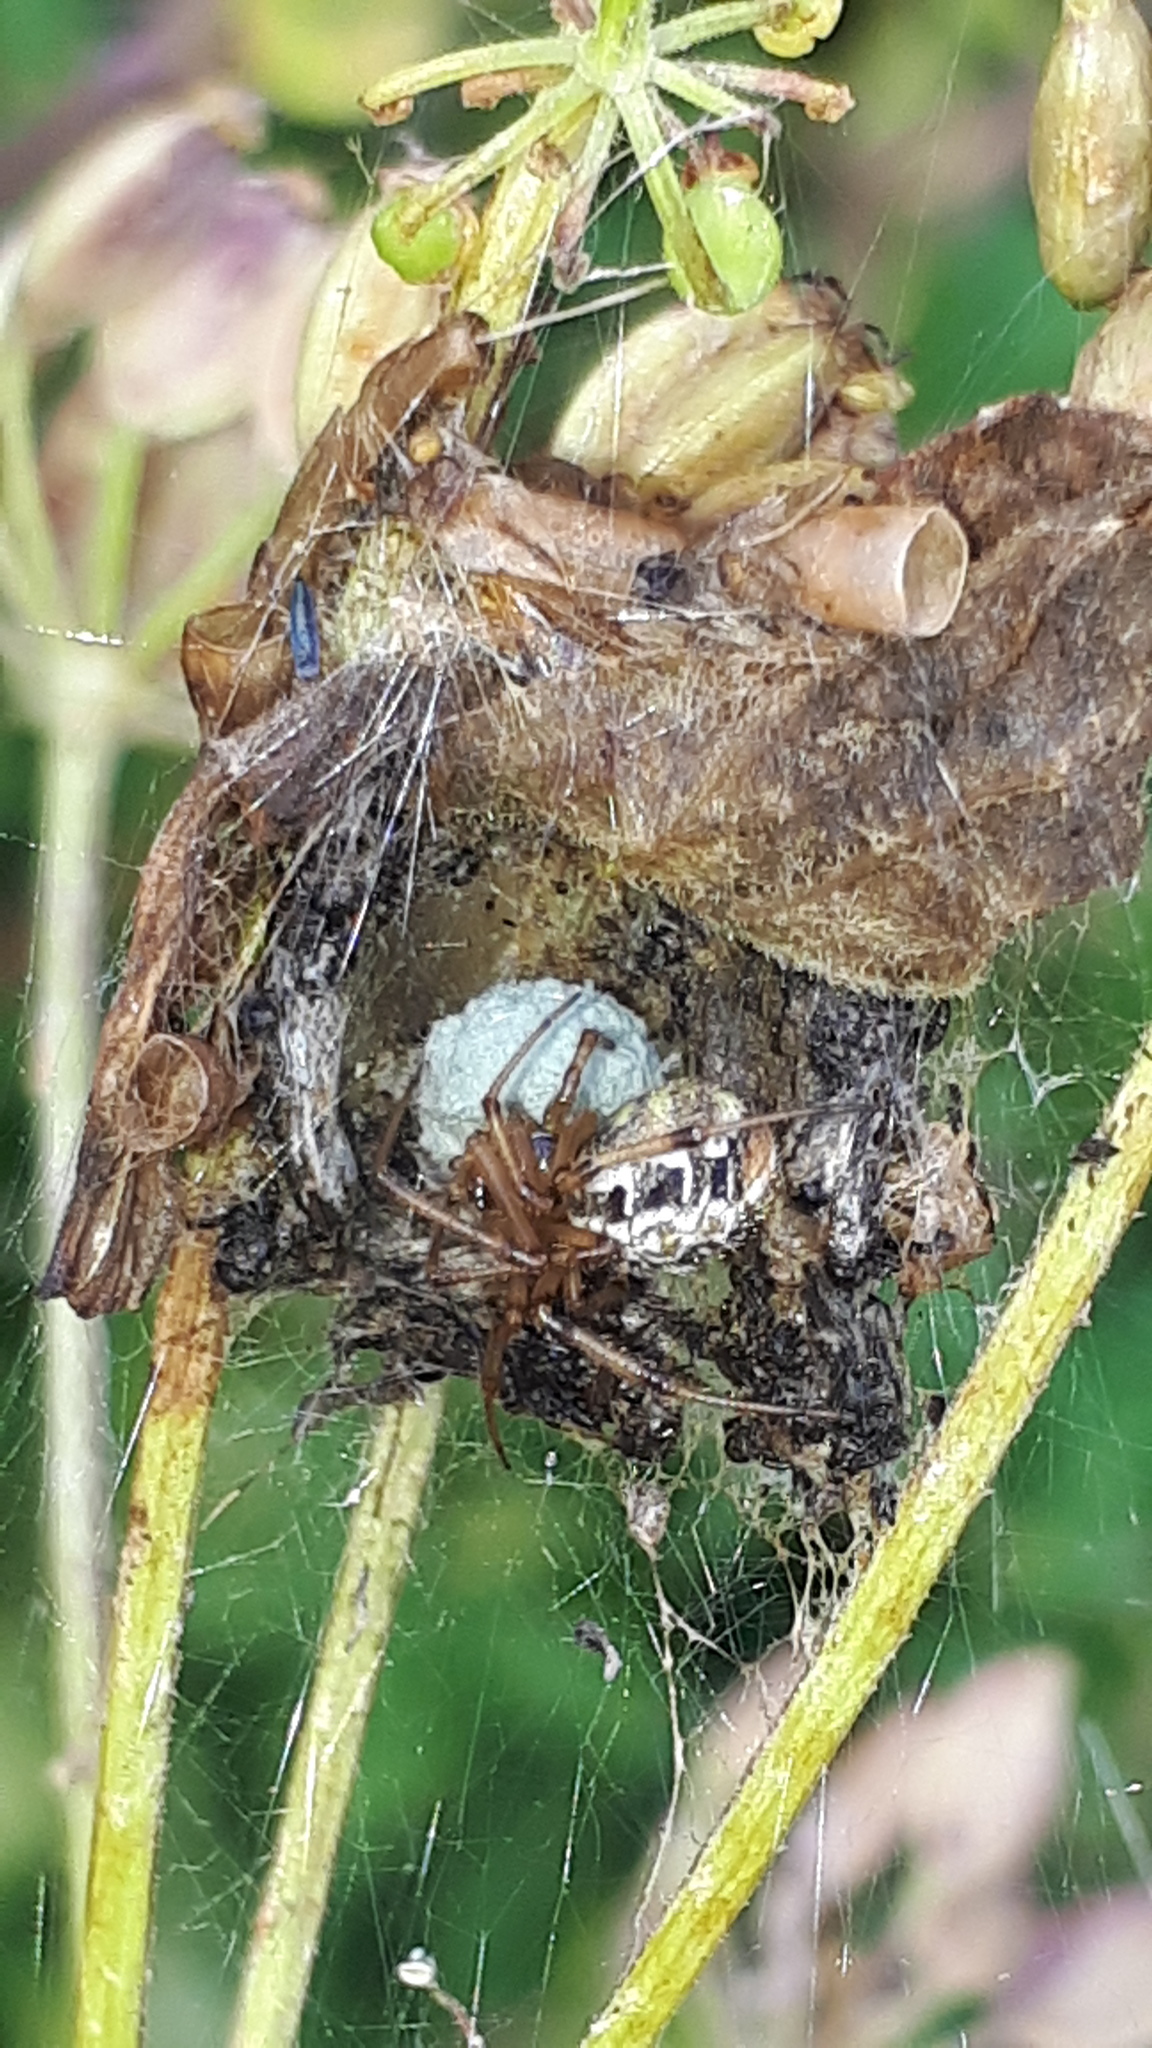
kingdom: Animalia
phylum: Arthropoda
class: Arachnida
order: Araneae
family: Theridiidae
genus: Phylloneta
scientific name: Phylloneta impressa
